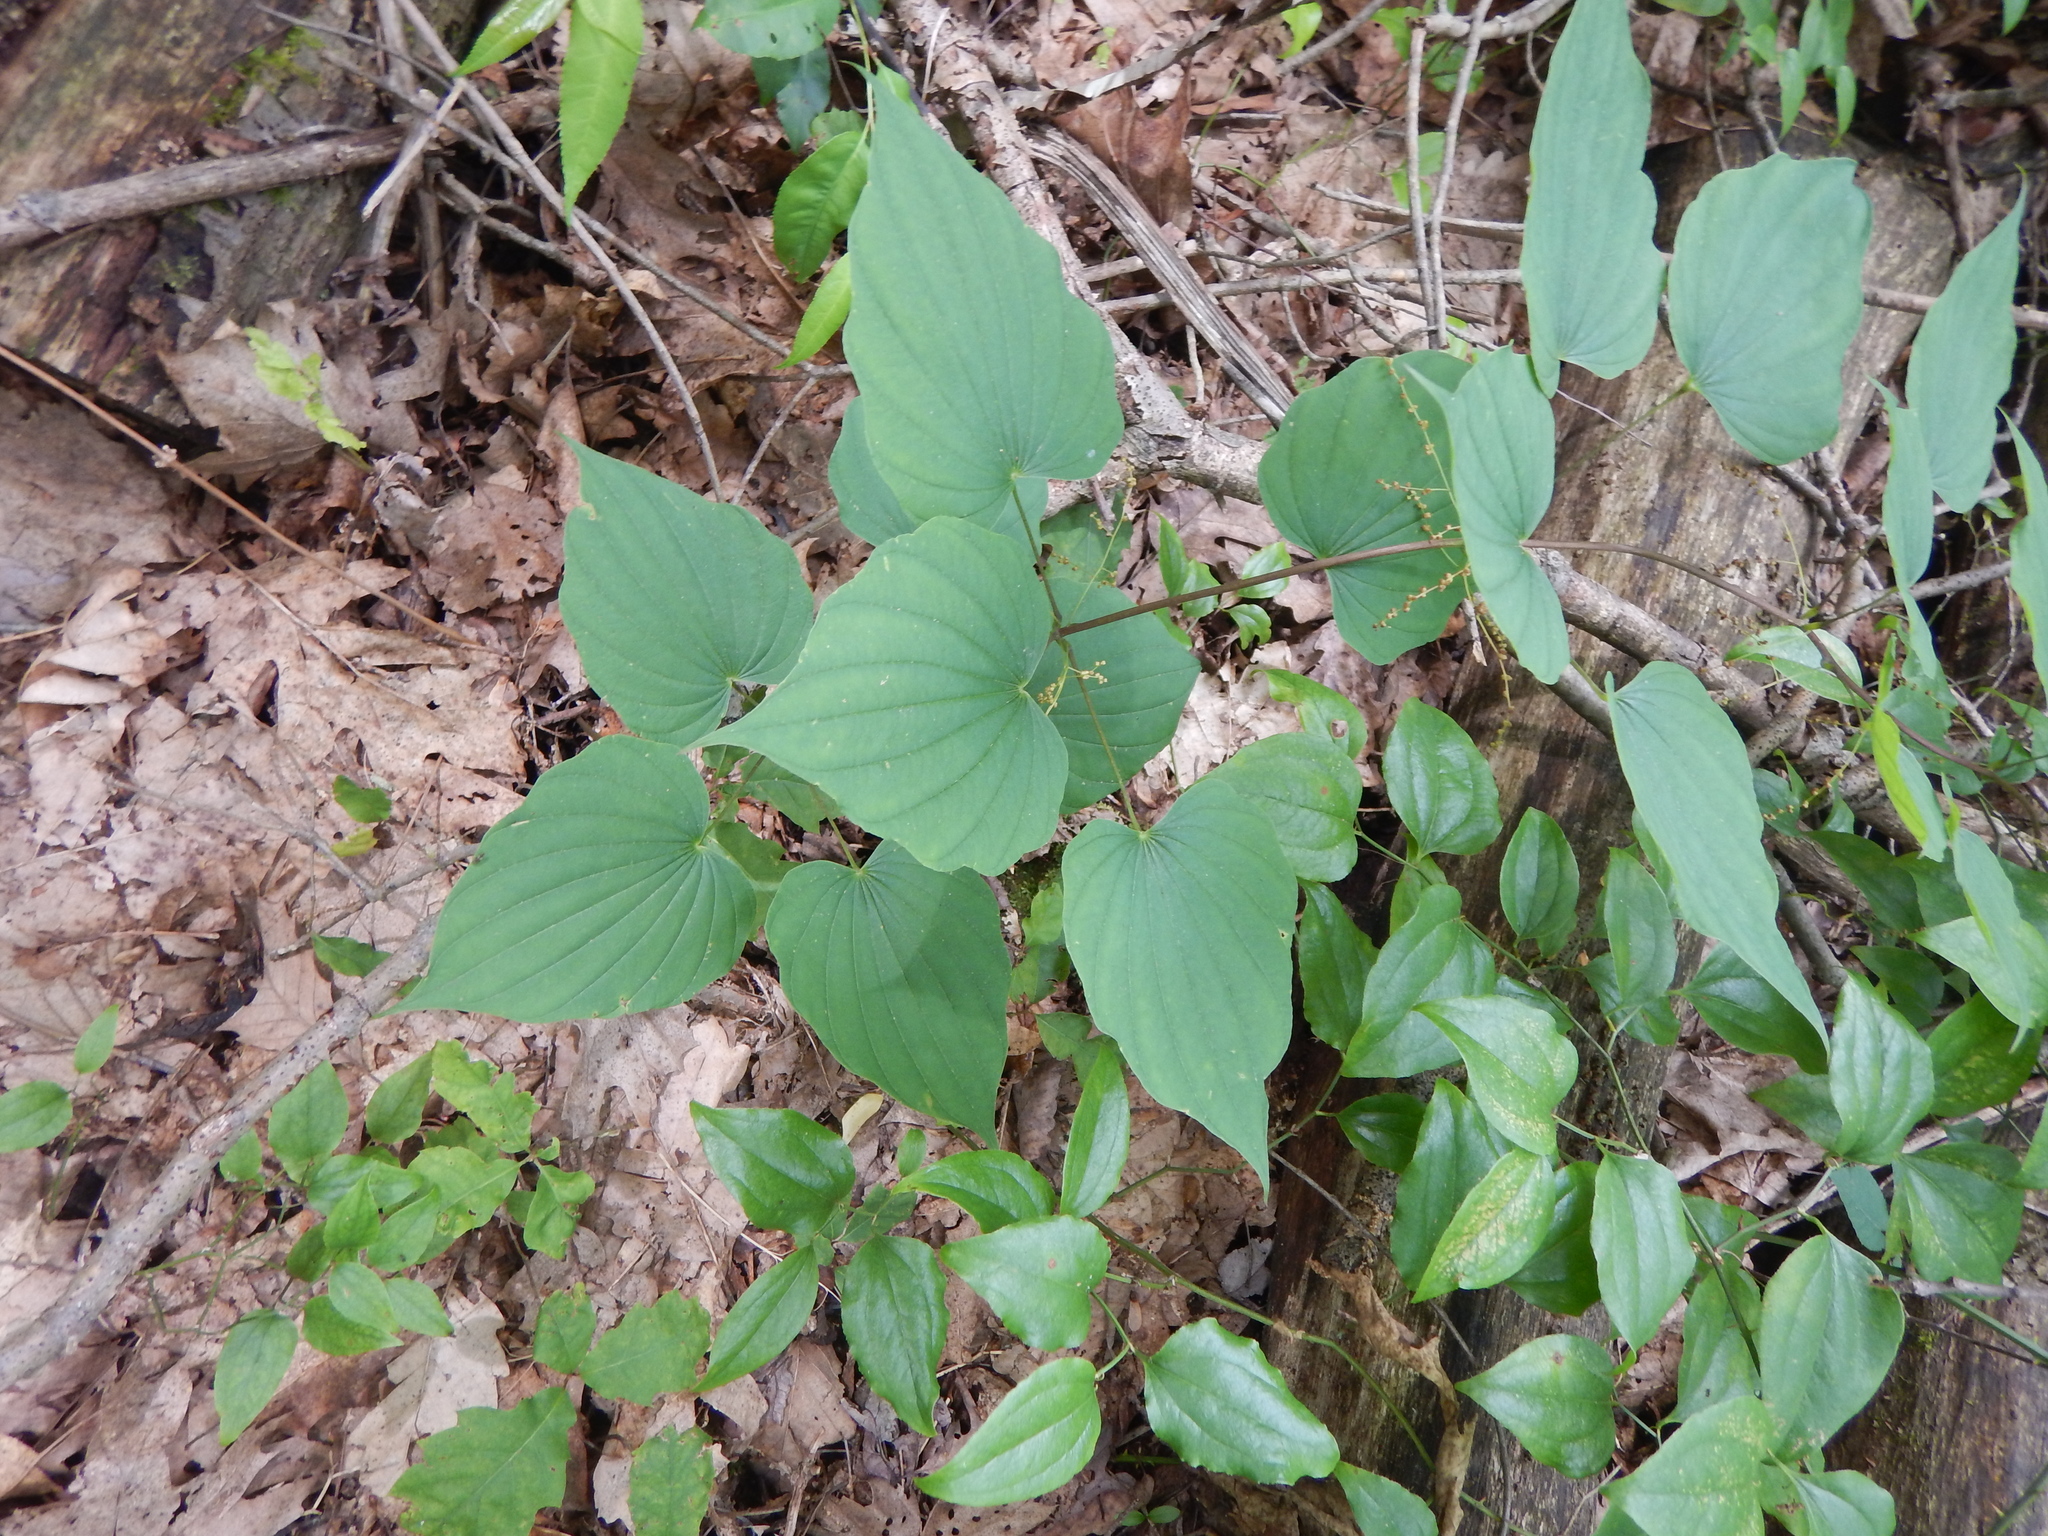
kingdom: Plantae
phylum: Tracheophyta
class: Liliopsida
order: Dioscoreales
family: Dioscoreaceae
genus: Dioscorea
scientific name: Dioscorea villosa
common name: Wild yam
